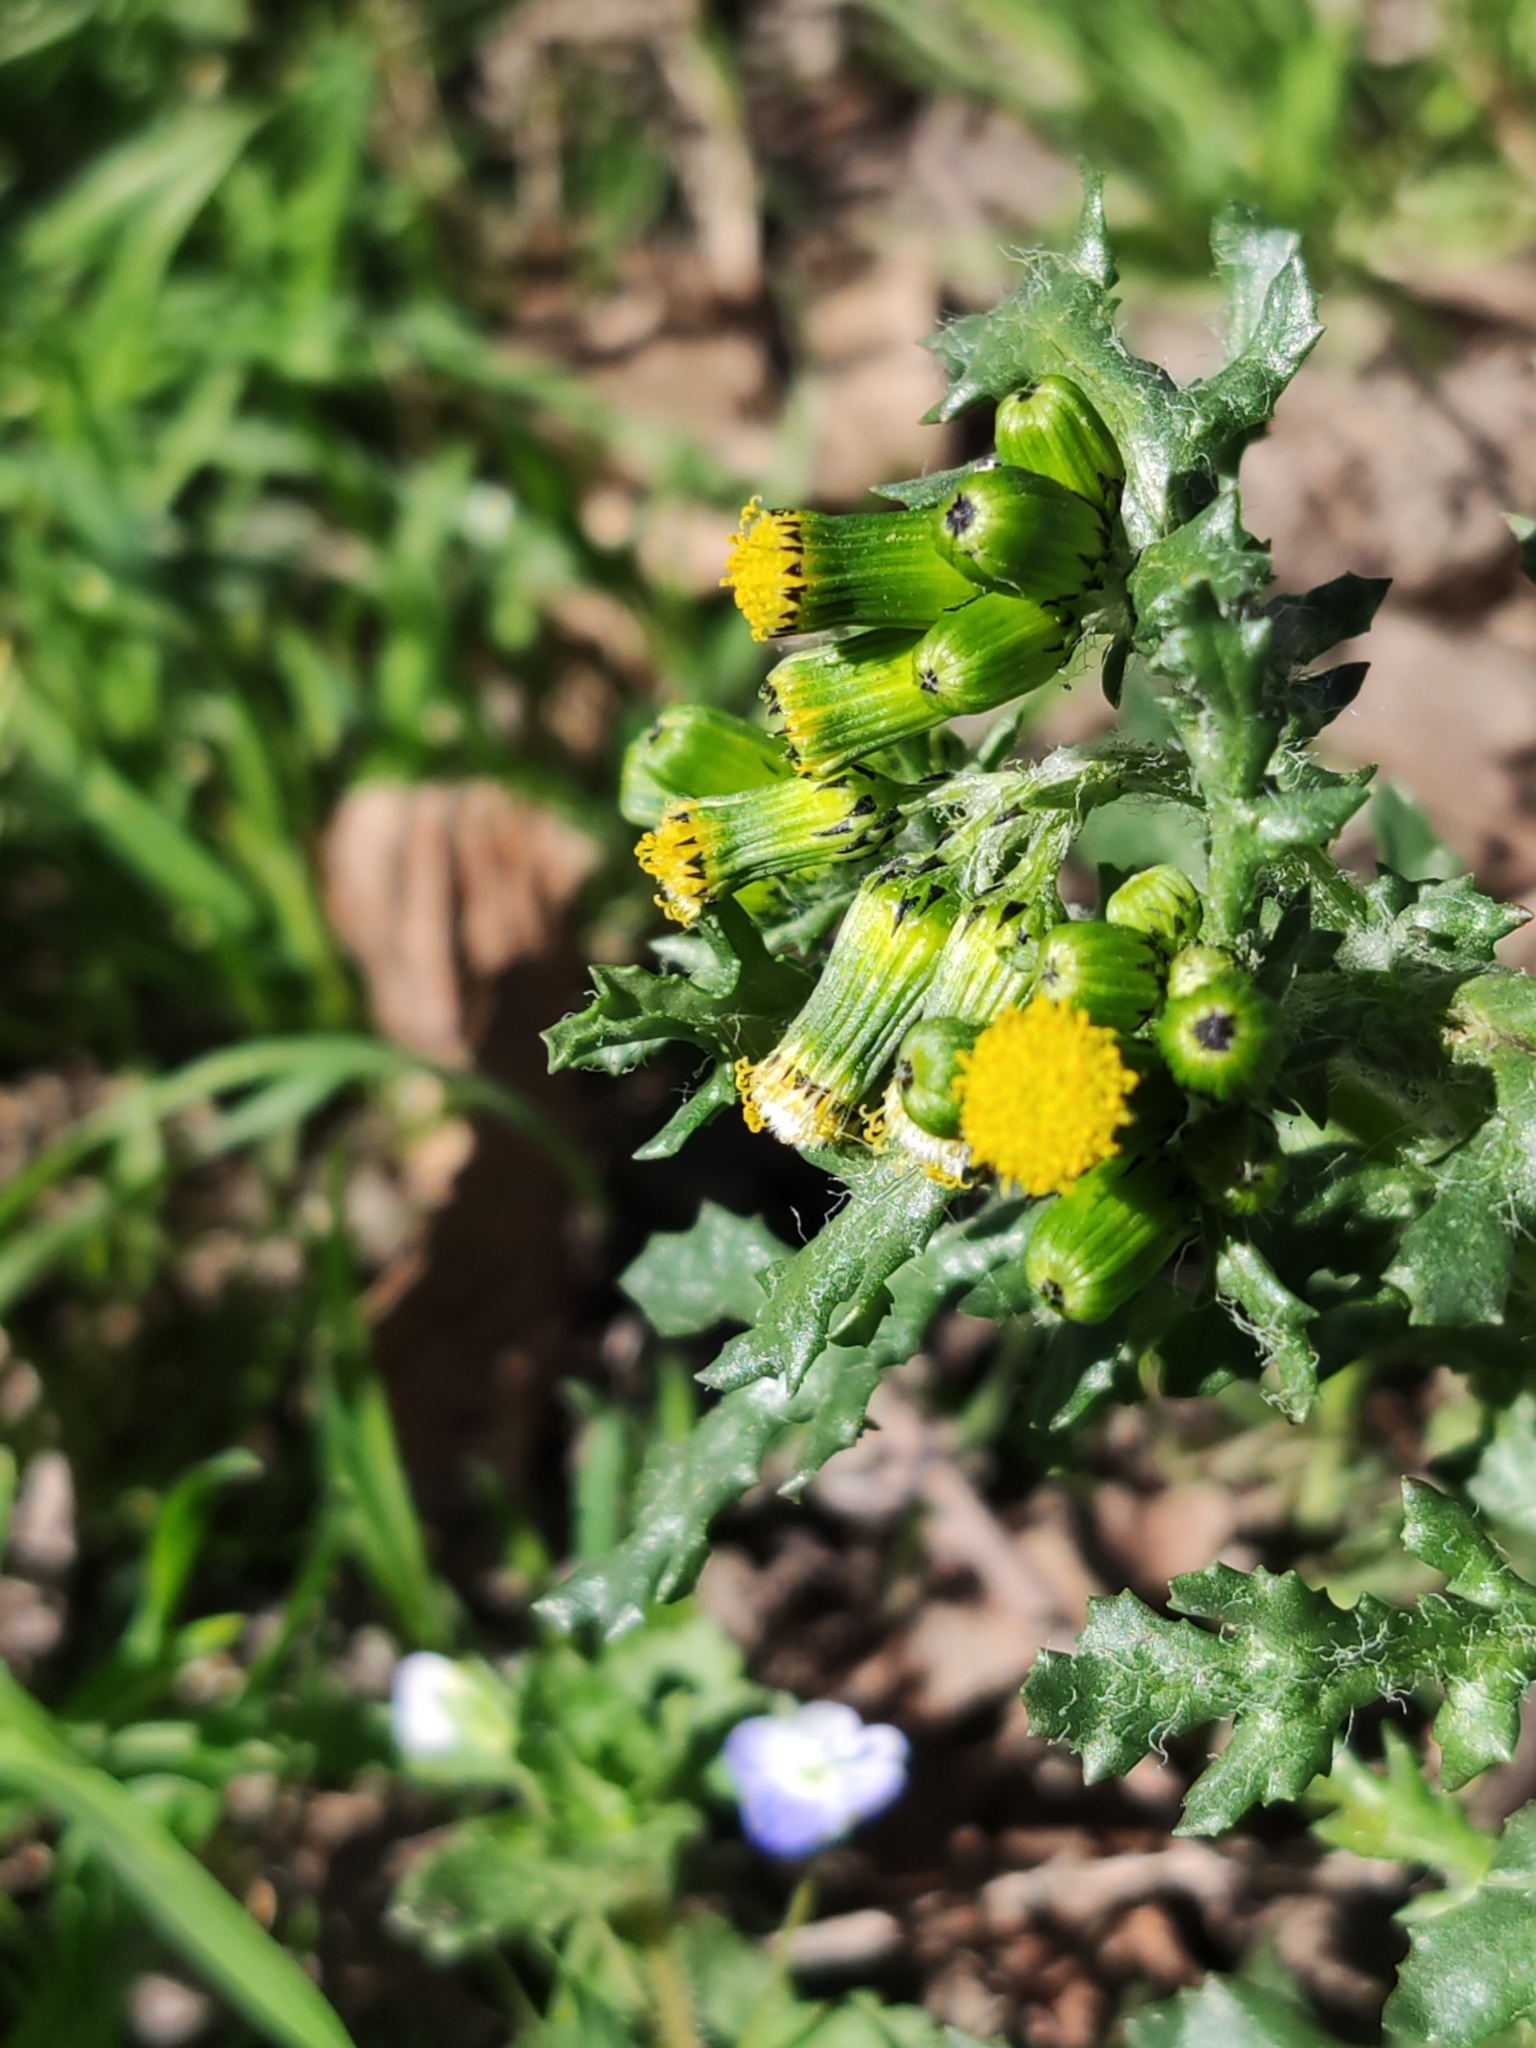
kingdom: Plantae
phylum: Tracheophyta
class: Magnoliopsida
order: Asterales
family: Asteraceae
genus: Senecio
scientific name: Senecio vulgaris
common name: Old-man-in-the-spring
